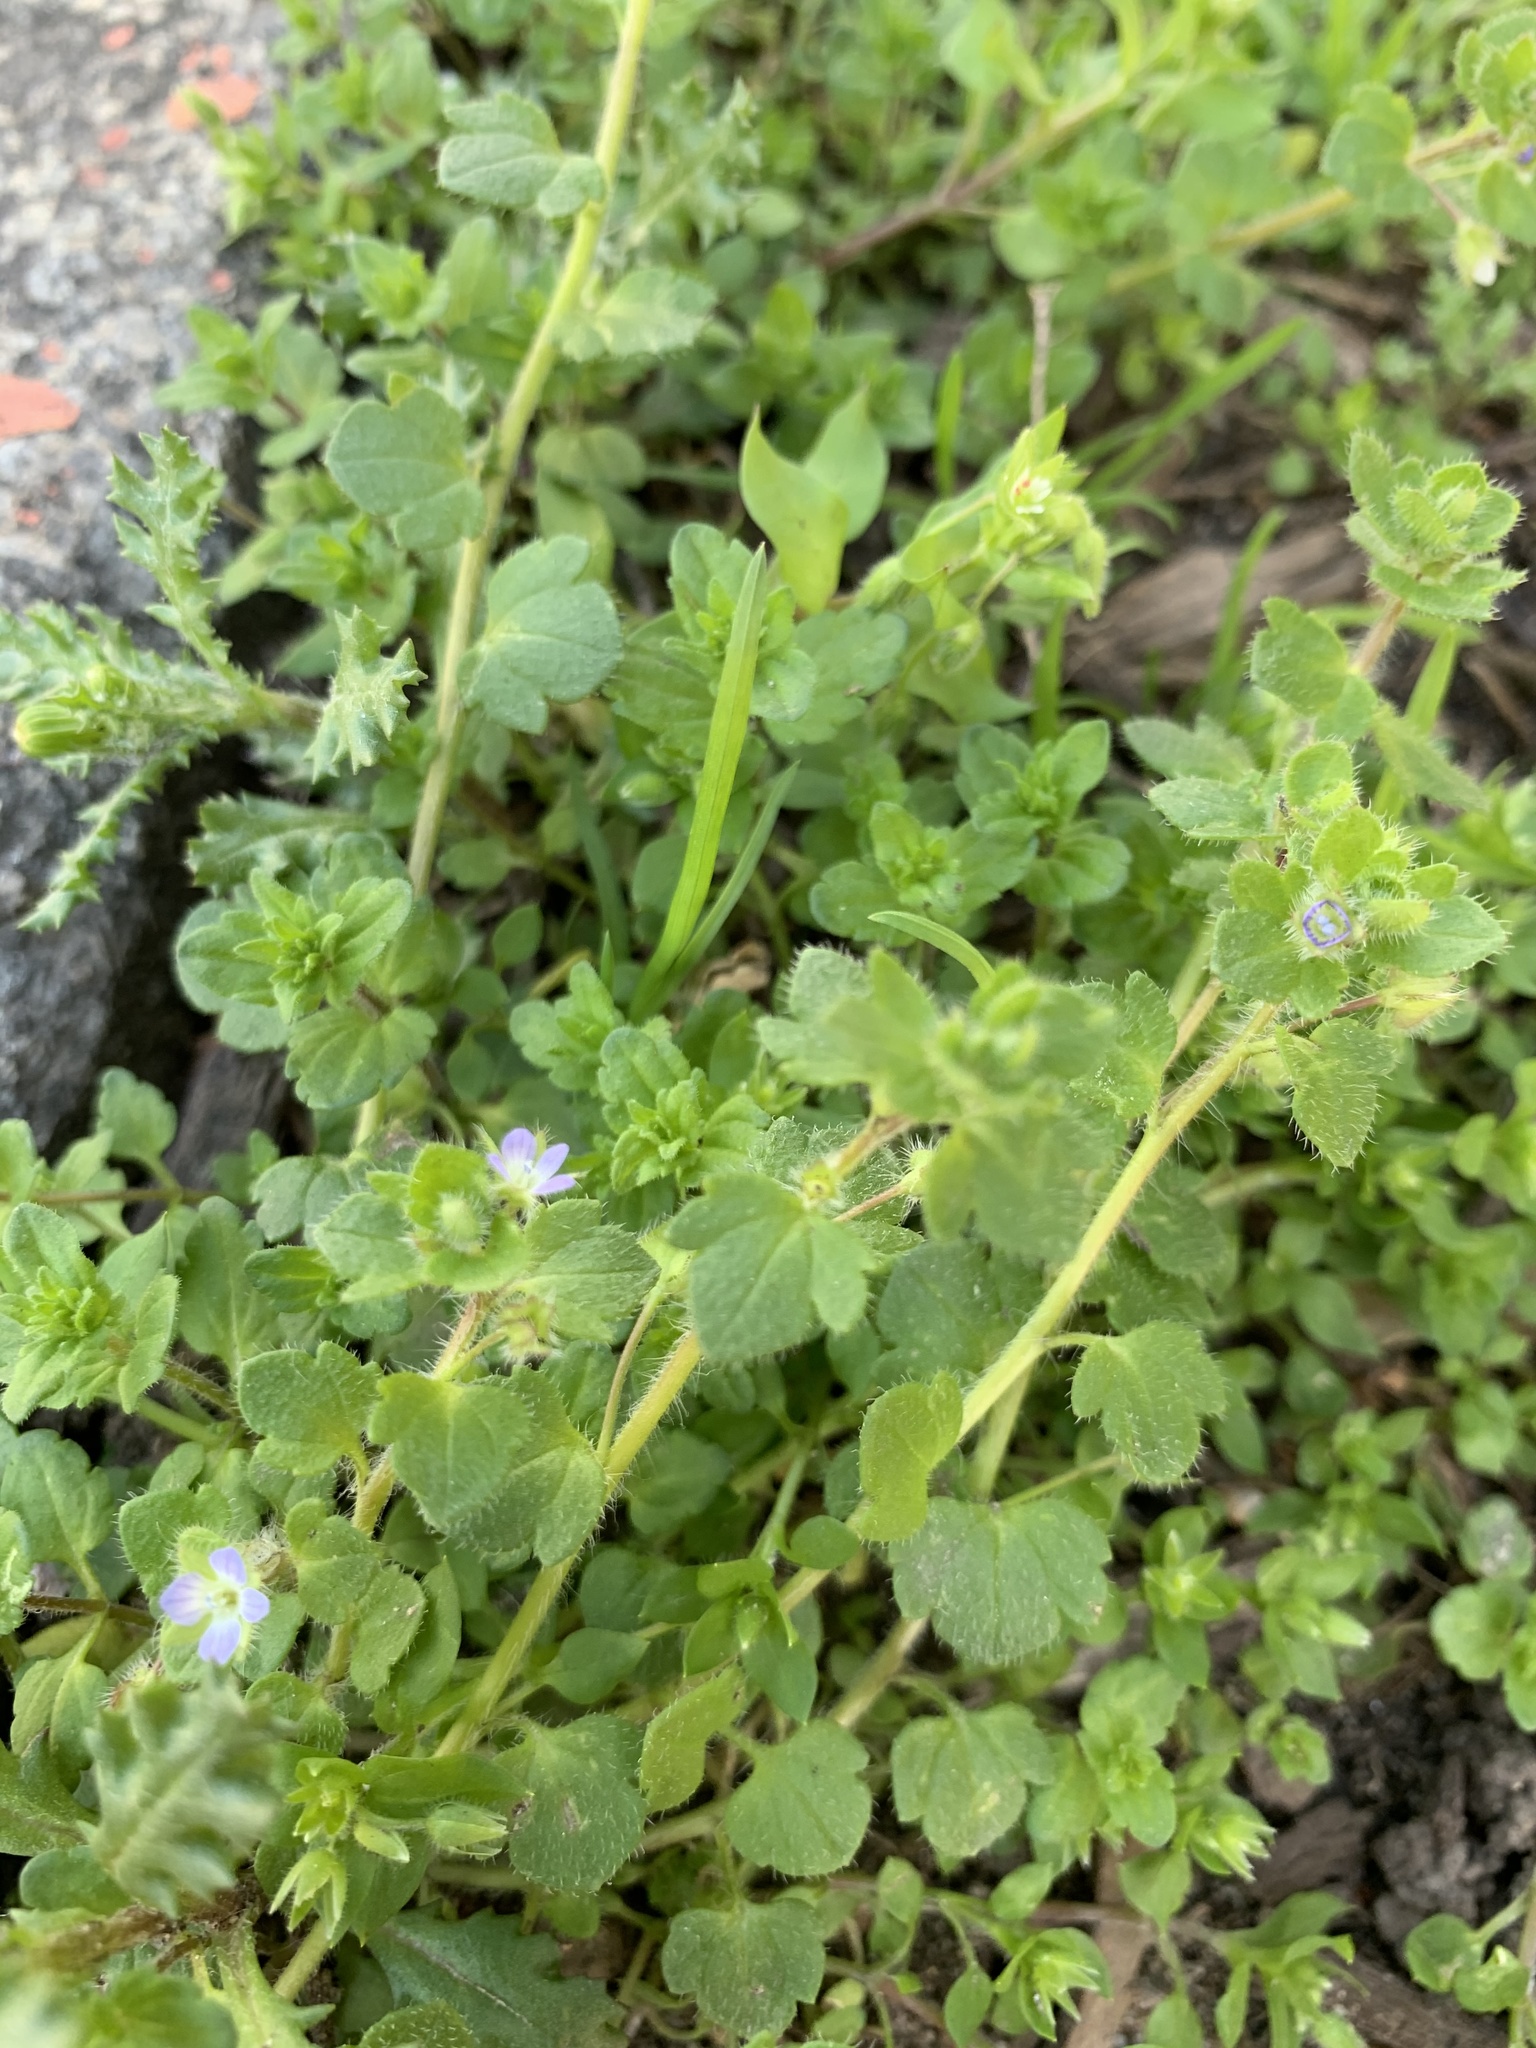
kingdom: Plantae
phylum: Tracheophyta
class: Magnoliopsida
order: Lamiales
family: Plantaginaceae
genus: Veronica
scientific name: Veronica sublobata
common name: False ivy-leaved speedwell
